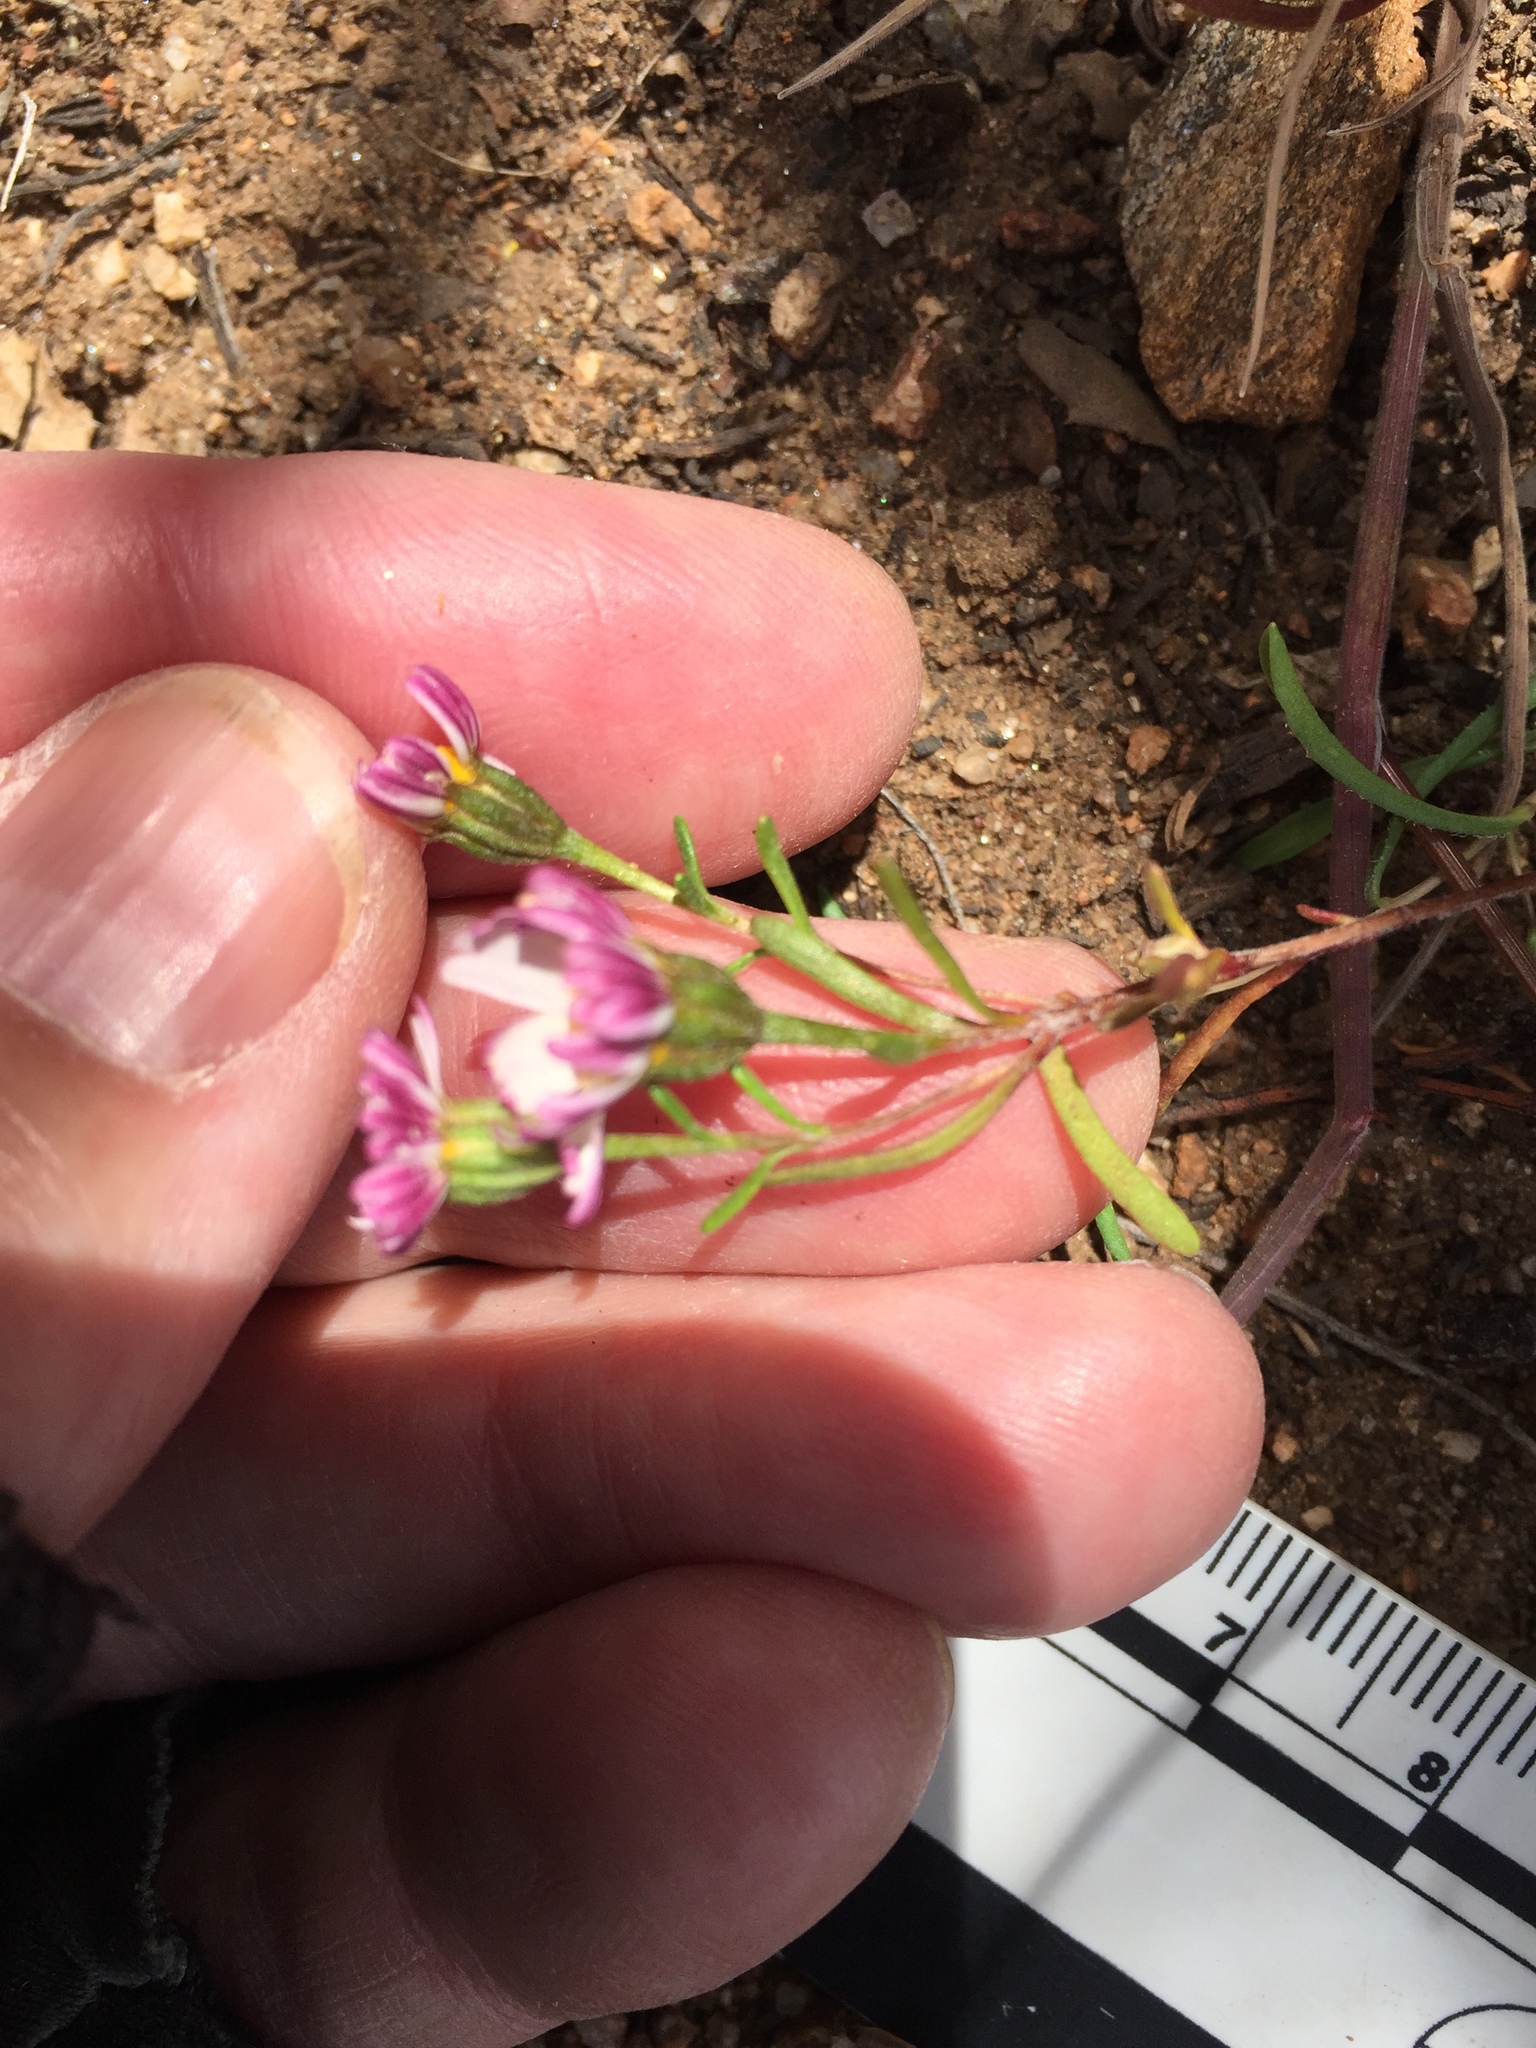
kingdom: Plantae
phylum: Tracheophyta
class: Magnoliopsida
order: Asterales
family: Asteraceae
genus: Syntrichopappus
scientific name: Syntrichopappus lemmonii
